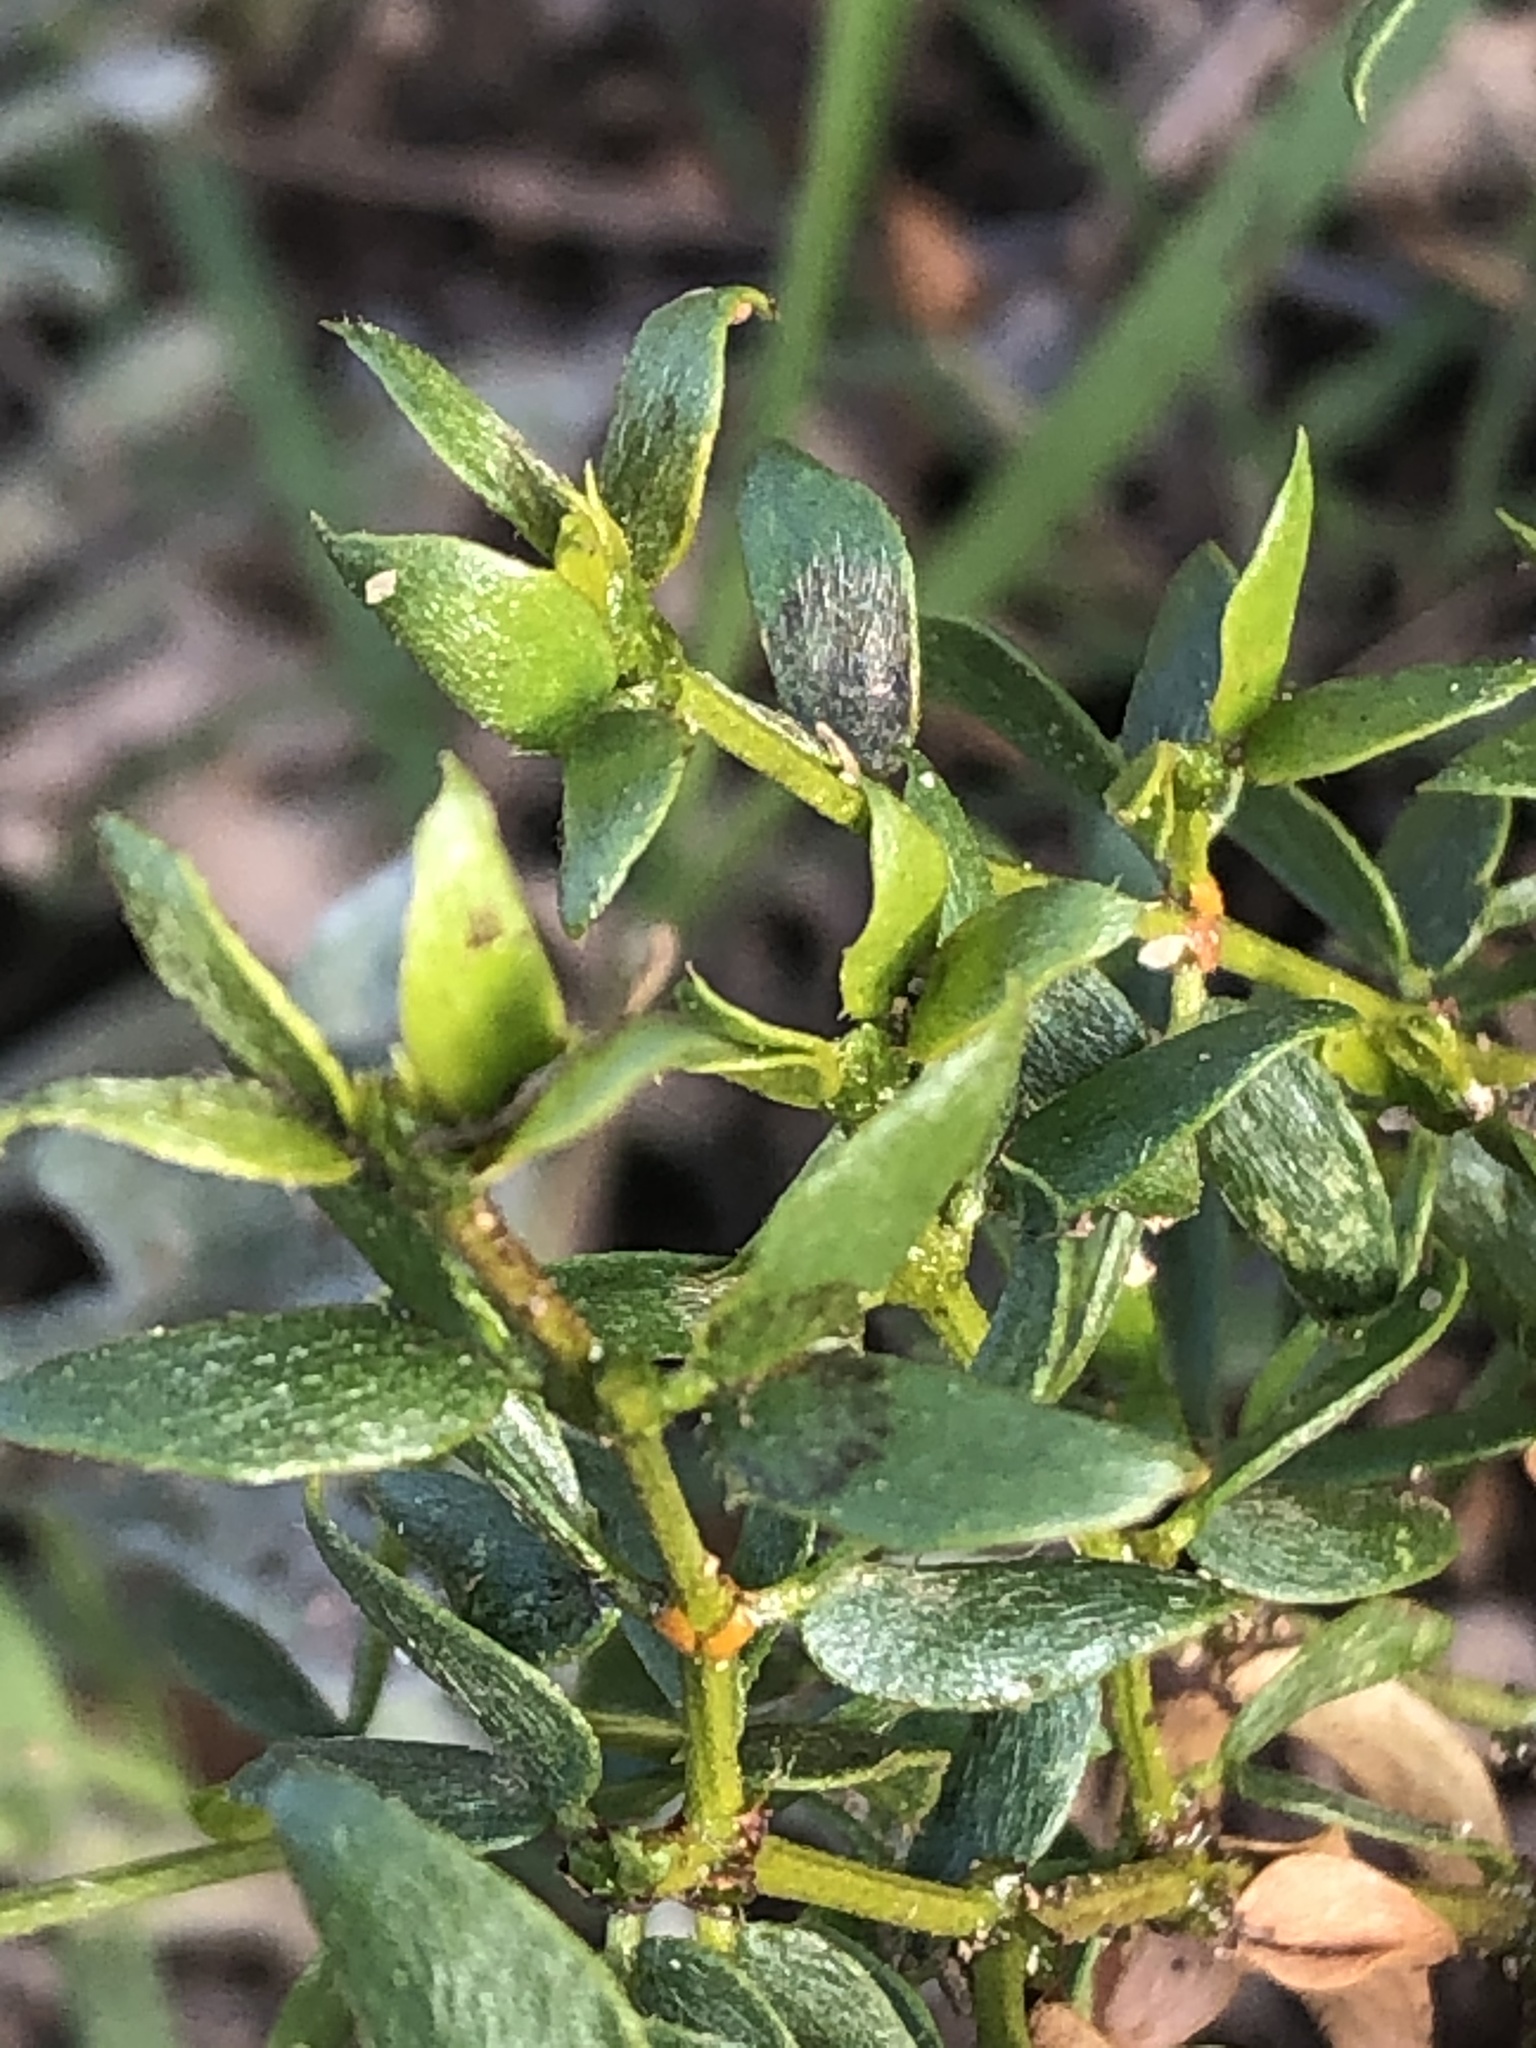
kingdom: Plantae
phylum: Tracheophyta
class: Magnoliopsida
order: Zygophyllales
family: Zygophyllaceae
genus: Larrea
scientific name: Larrea tridentata
